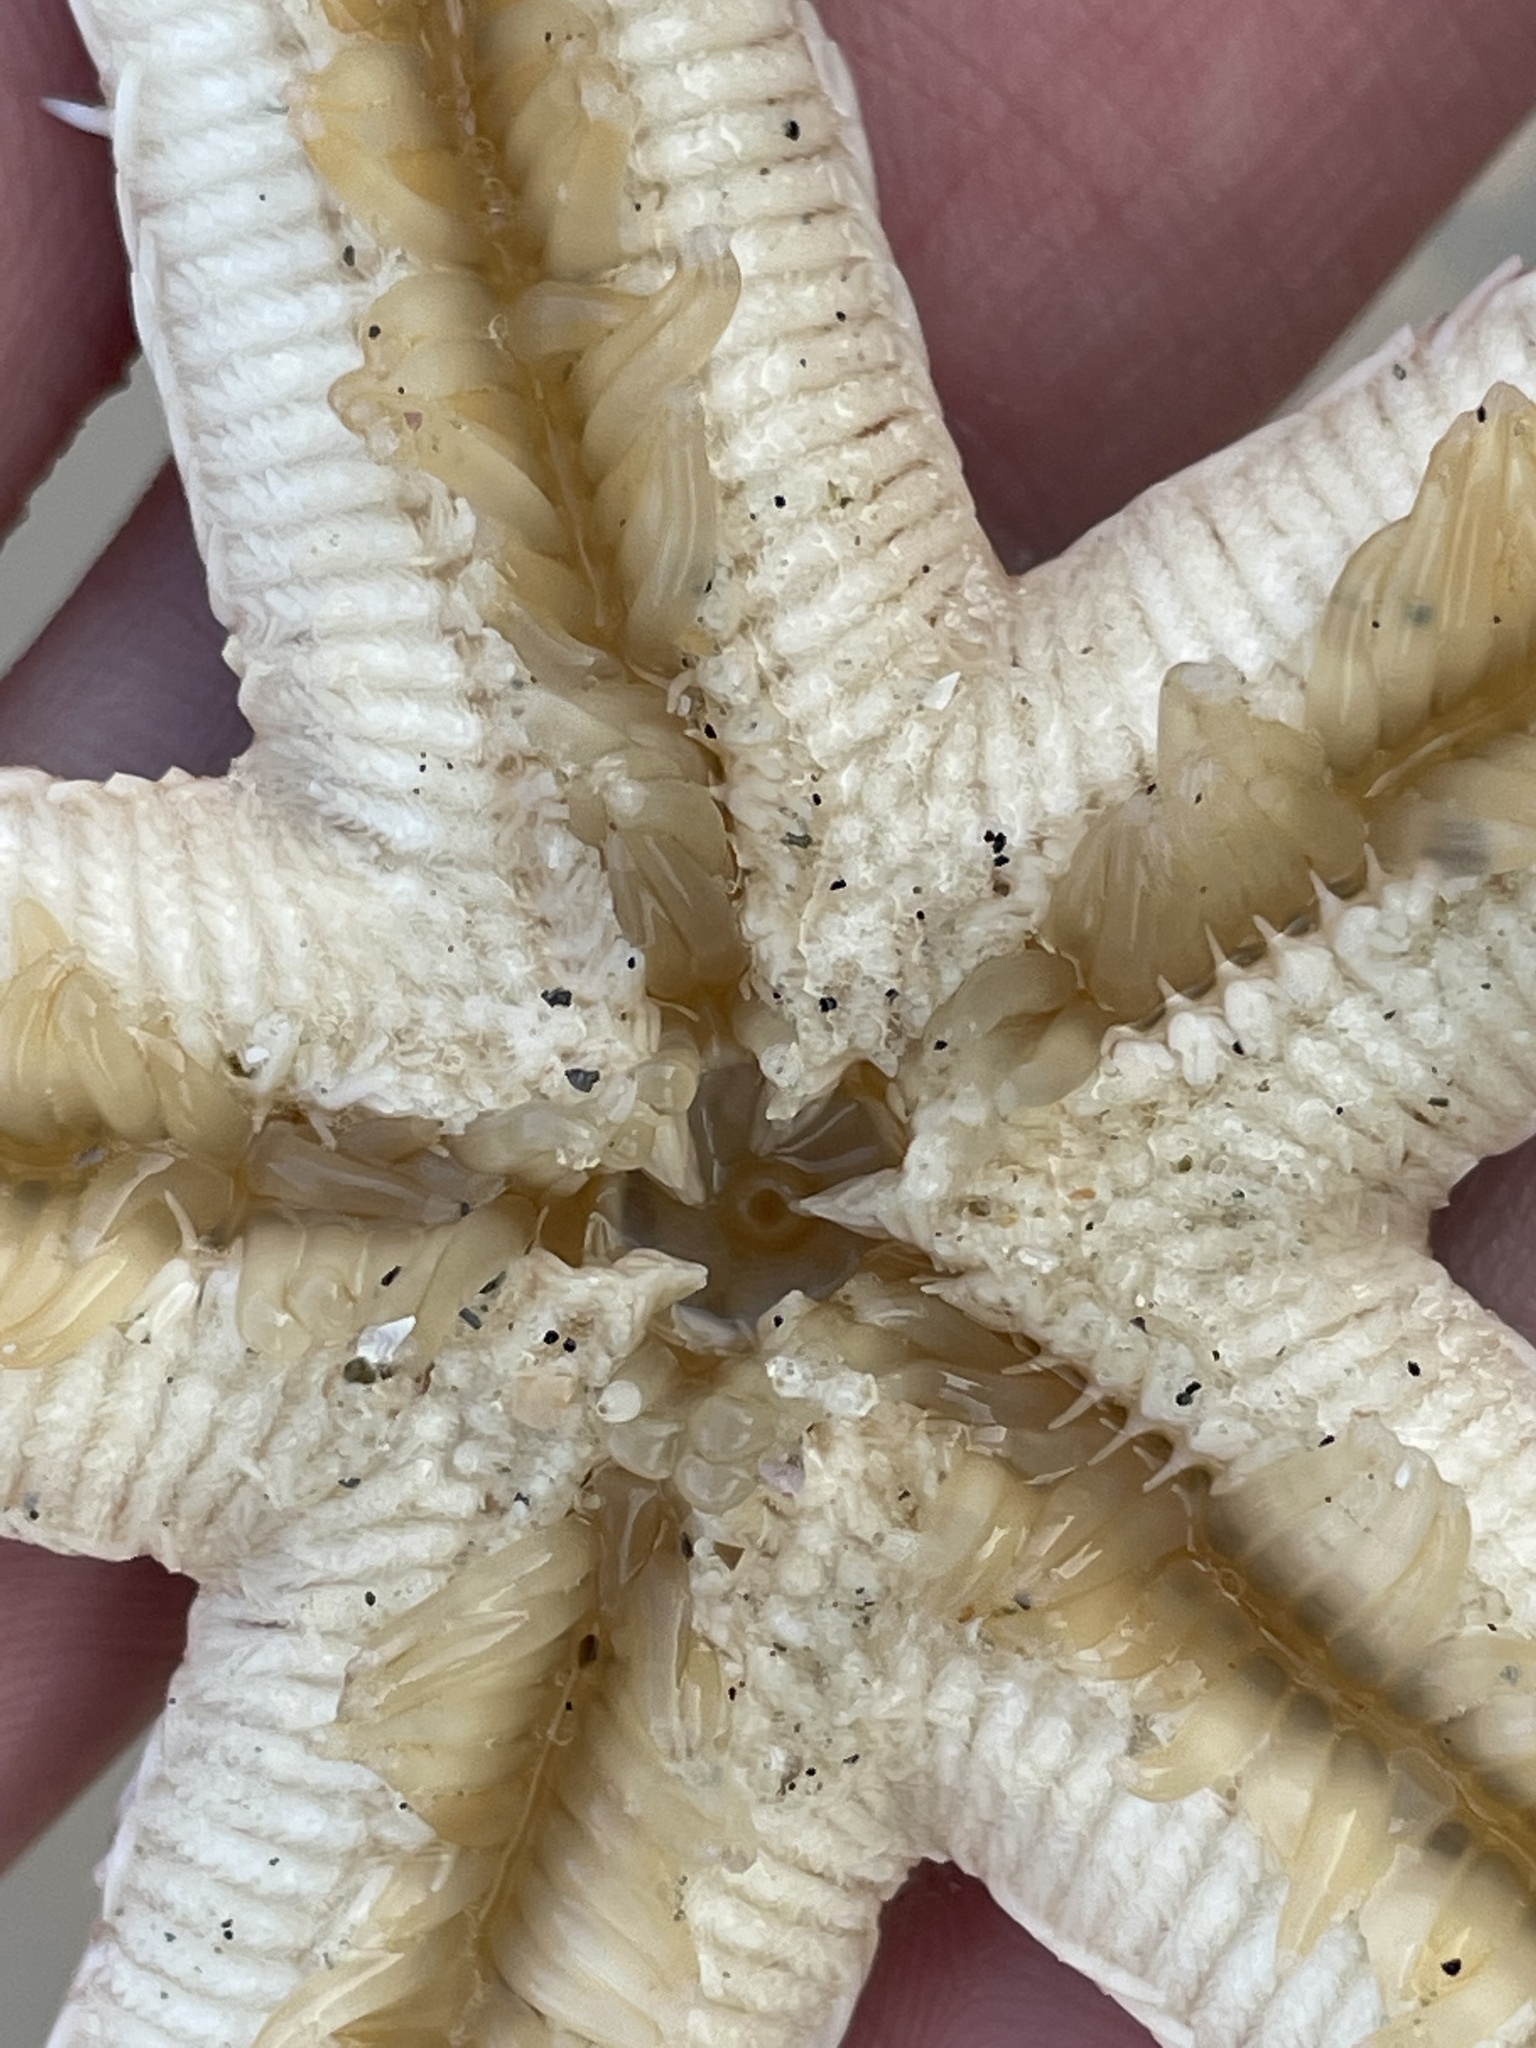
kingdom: Animalia
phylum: Echinodermata
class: Asteroidea
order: Paxillosida
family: Luidiidae
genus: Luidia
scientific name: Luidia clathrata
